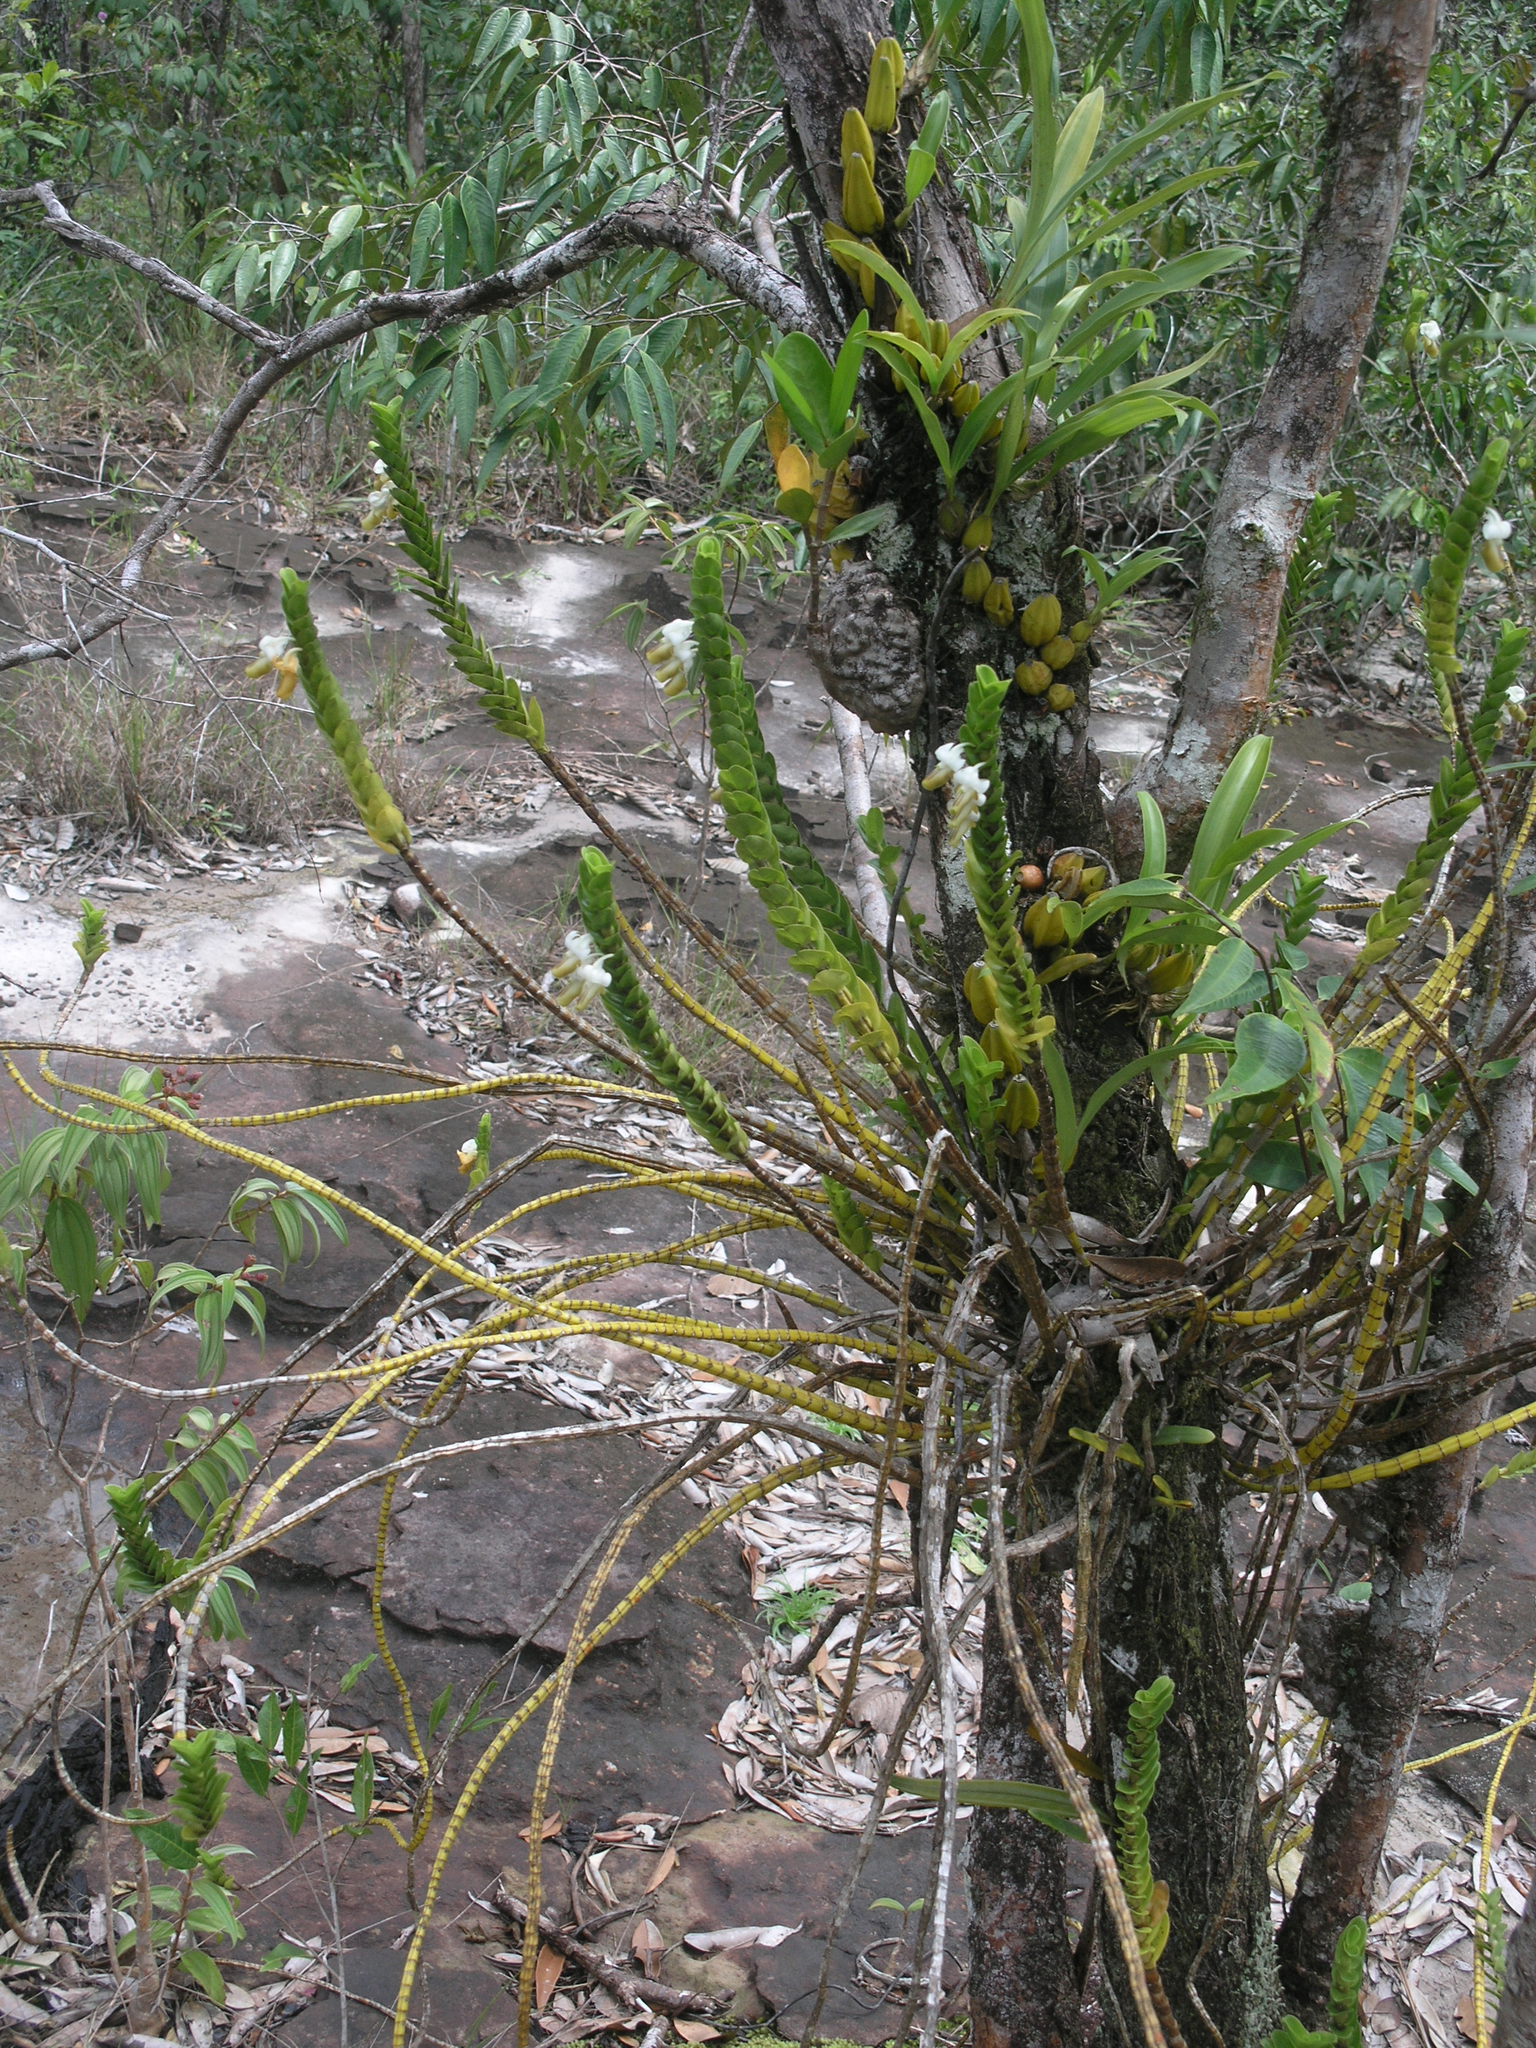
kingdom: Plantae
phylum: Tracheophyta
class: Liliopsida
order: Asparagales
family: Orchidaceae
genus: Dendrobium
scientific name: Dendrobium ellipsophyllum
